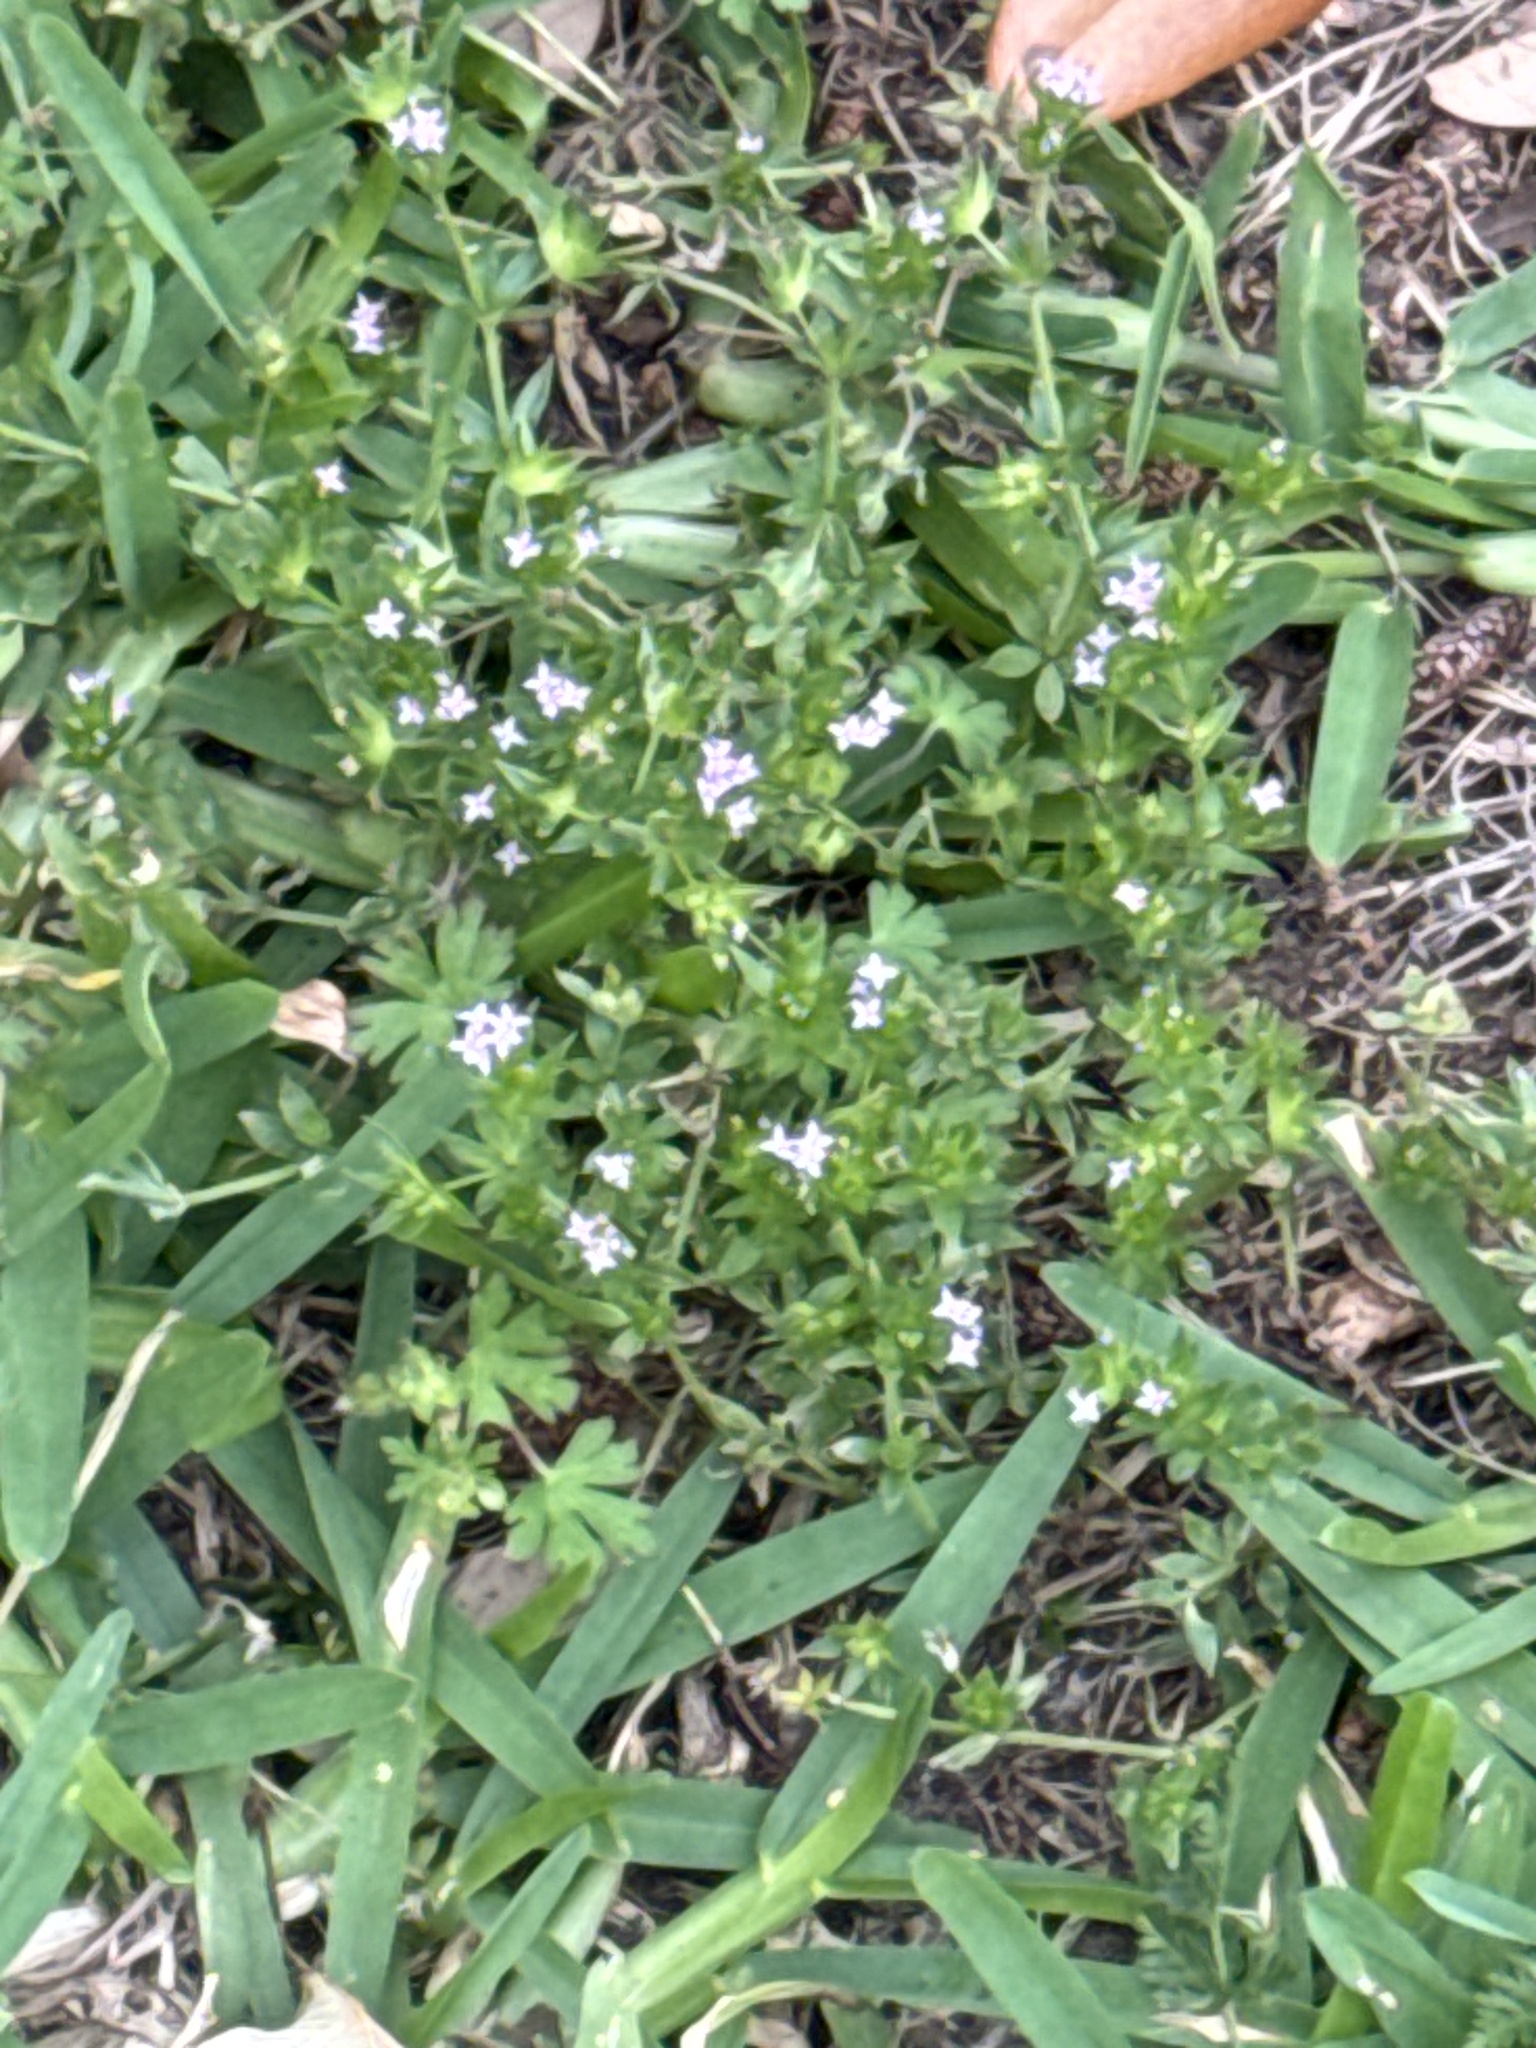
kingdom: Plantae
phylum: Tracheophyta
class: Magnoliopsida
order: Gentianales
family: Rubiaceae
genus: Sherardia
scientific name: Sherardia arvensis
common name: Field madder
